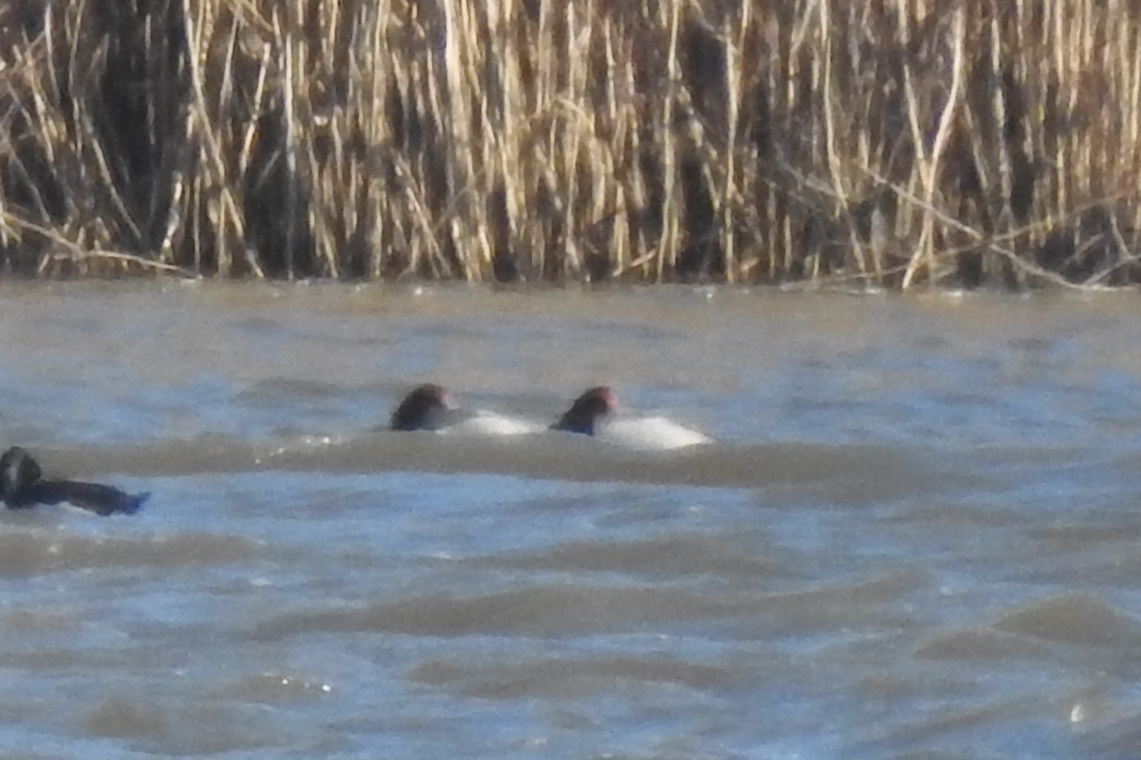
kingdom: Animalia
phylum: Chordata
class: Aves
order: Anseriformes
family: Anatidae
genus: Aythya
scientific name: Aythya americana
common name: Redhead
